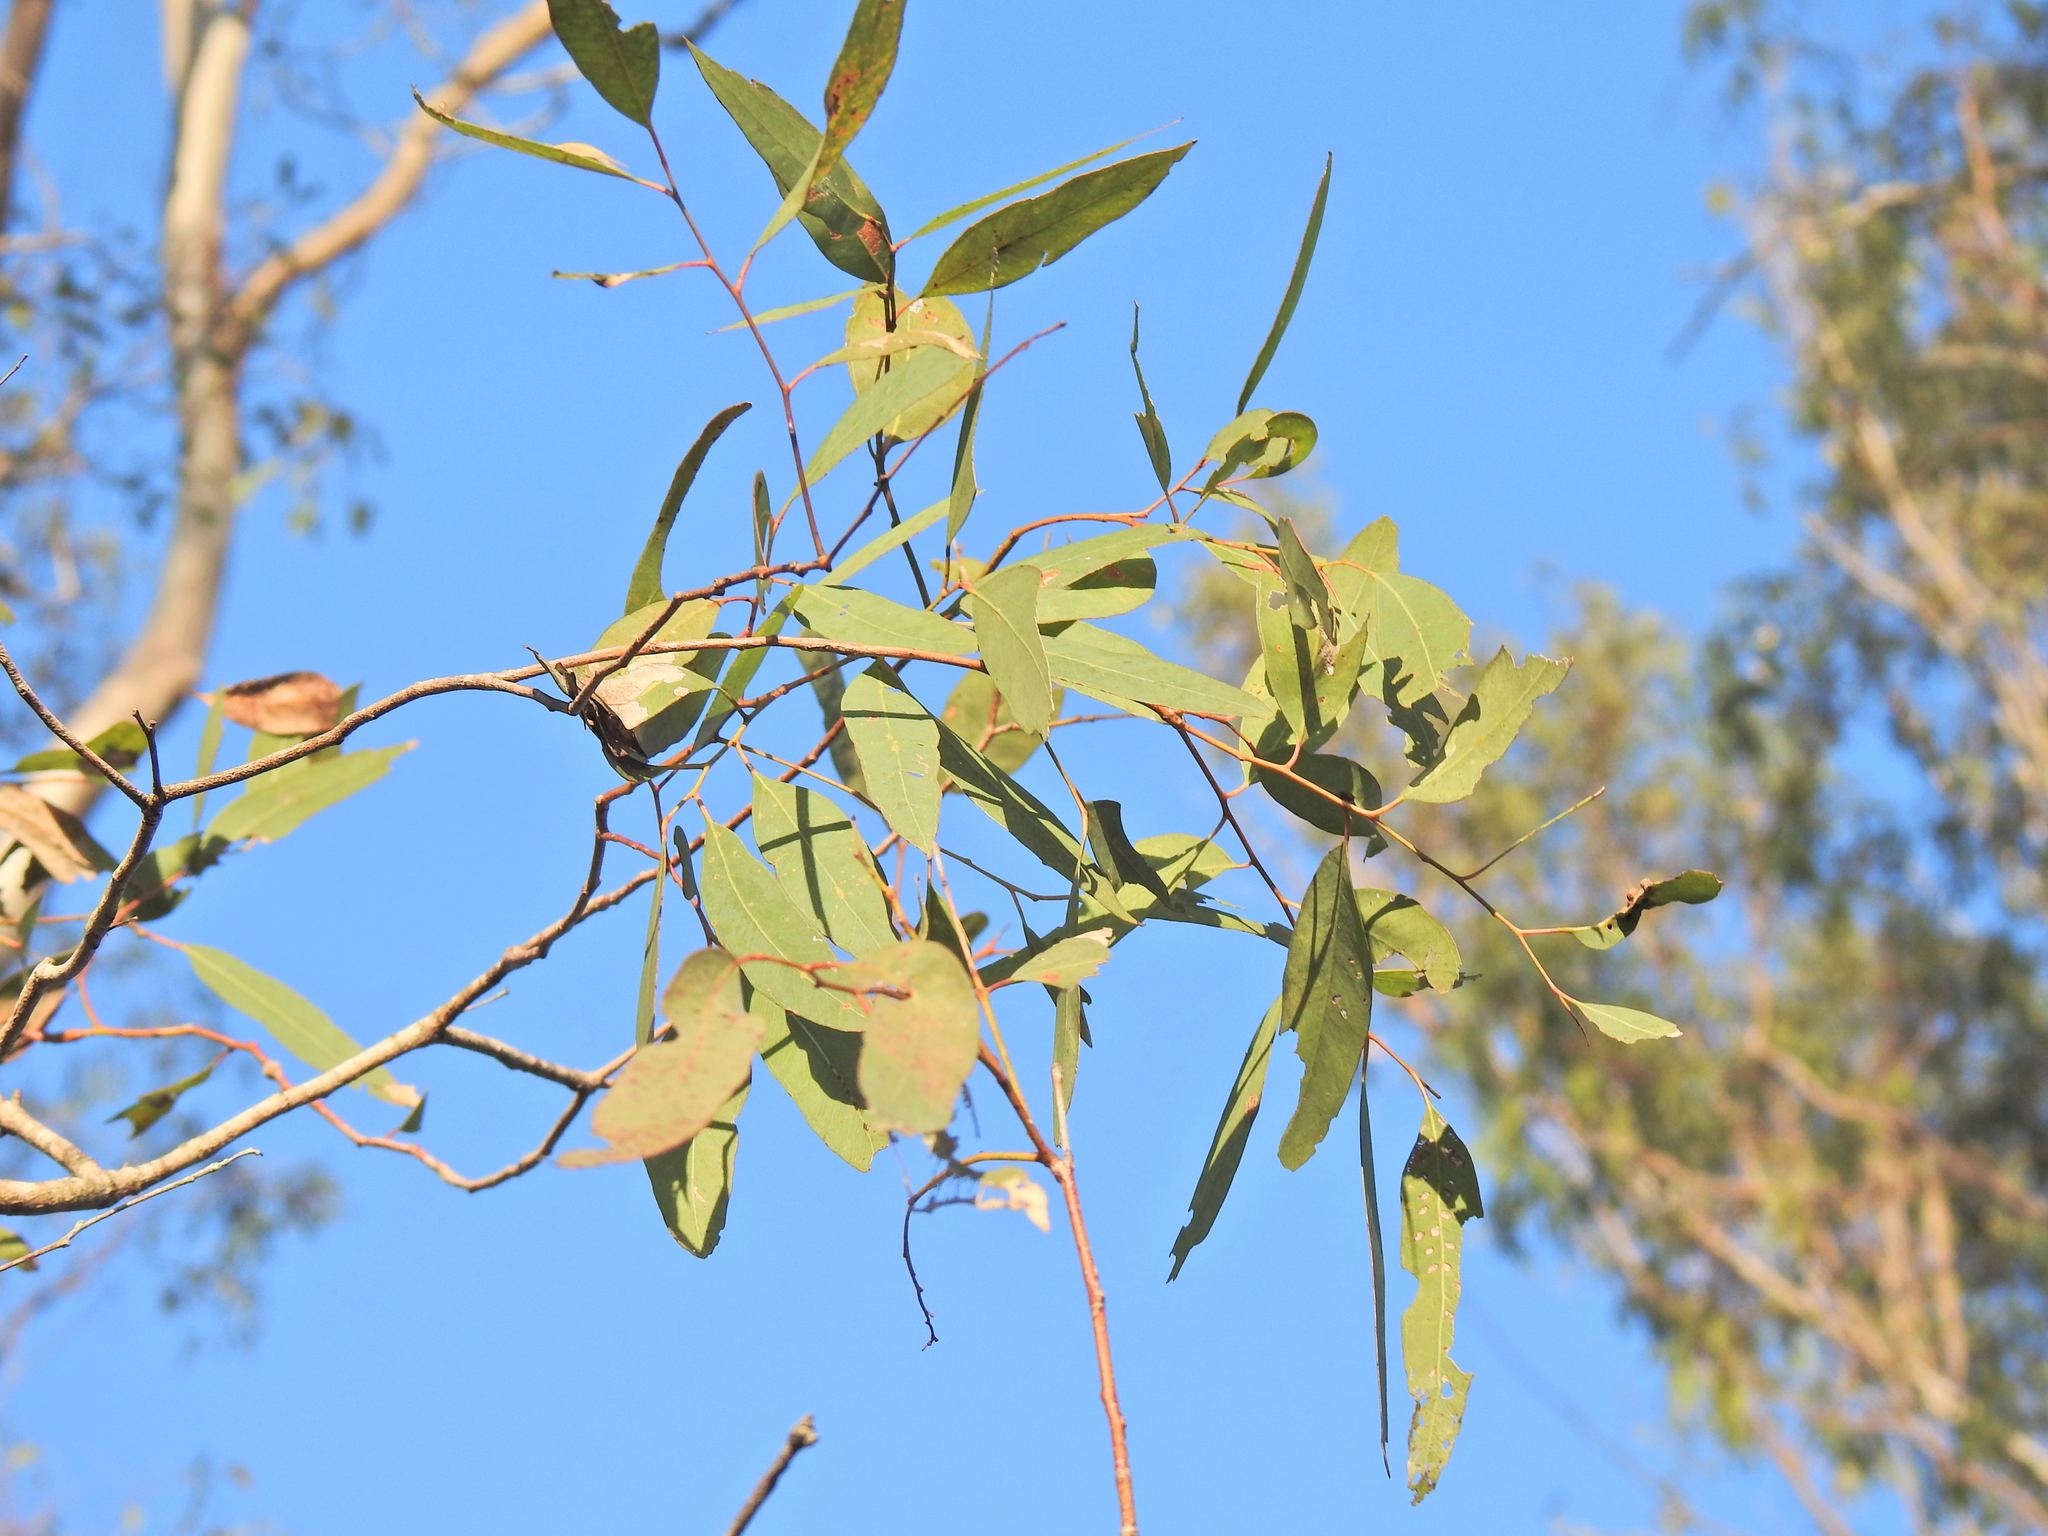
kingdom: Plantae
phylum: Tracheophyta
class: Magnoliopsida
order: Myrtales
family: Myrtaceae
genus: Eucalyptus
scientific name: Eucalyptus siderophloia
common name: Broad-leafed-ironbark
